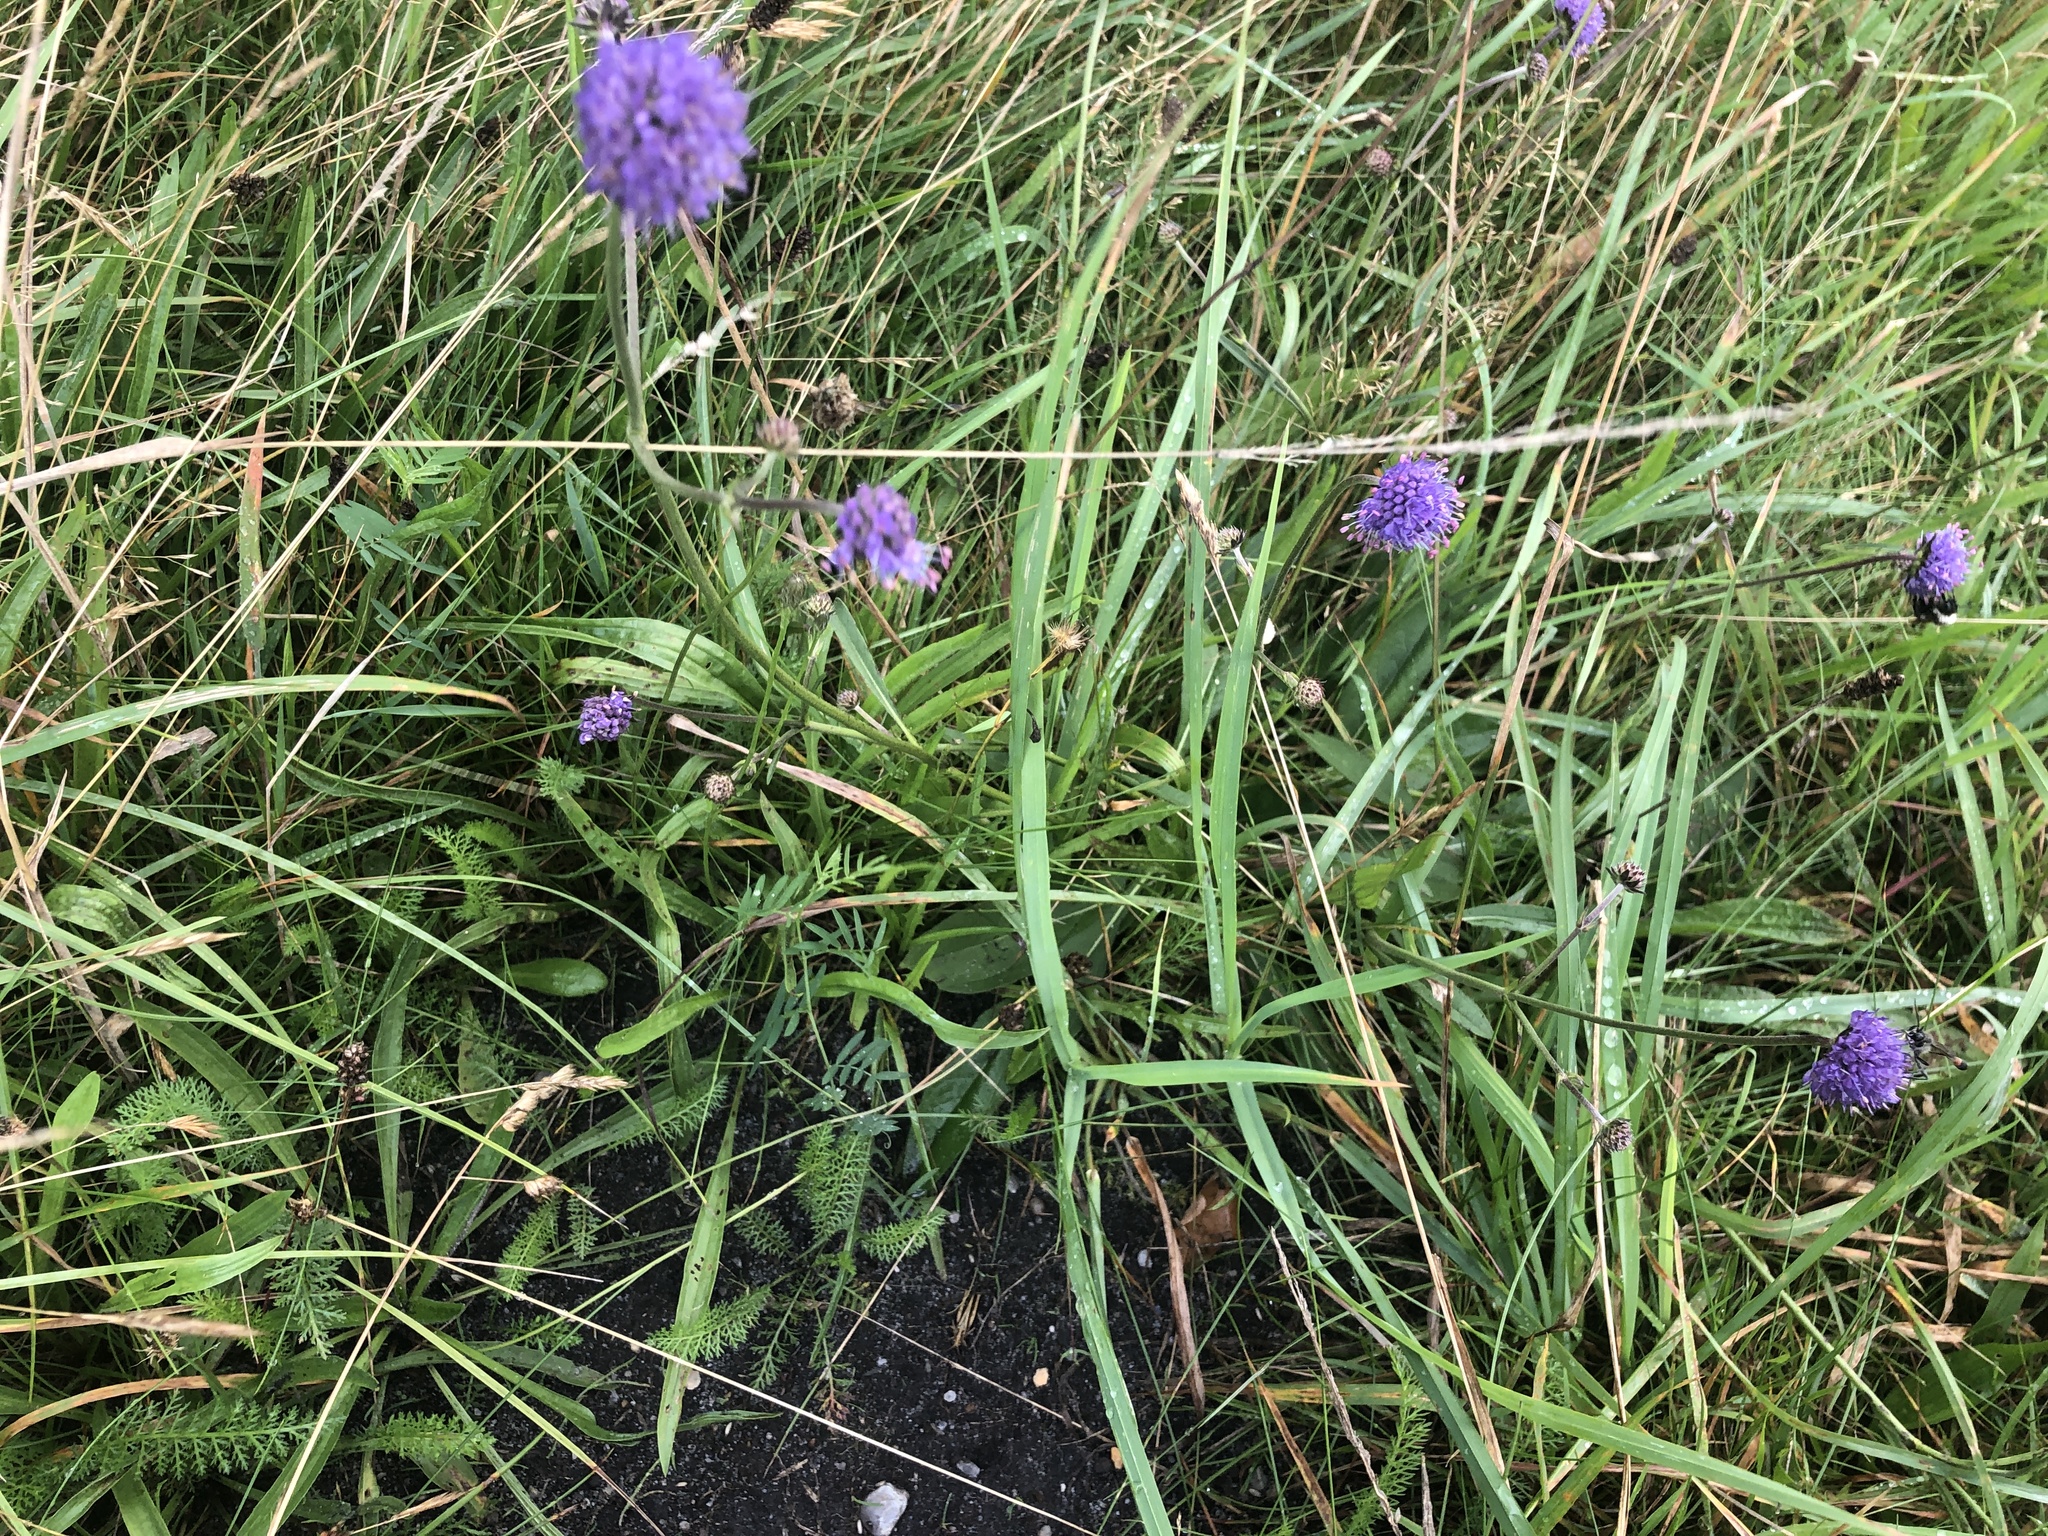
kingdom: Plantae
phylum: Tracheophyta
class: Magnoliopsida
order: Dipsacales
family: Caprifoliaceae
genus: Succisa
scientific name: Succisa pratensis
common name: Devil's-bit
